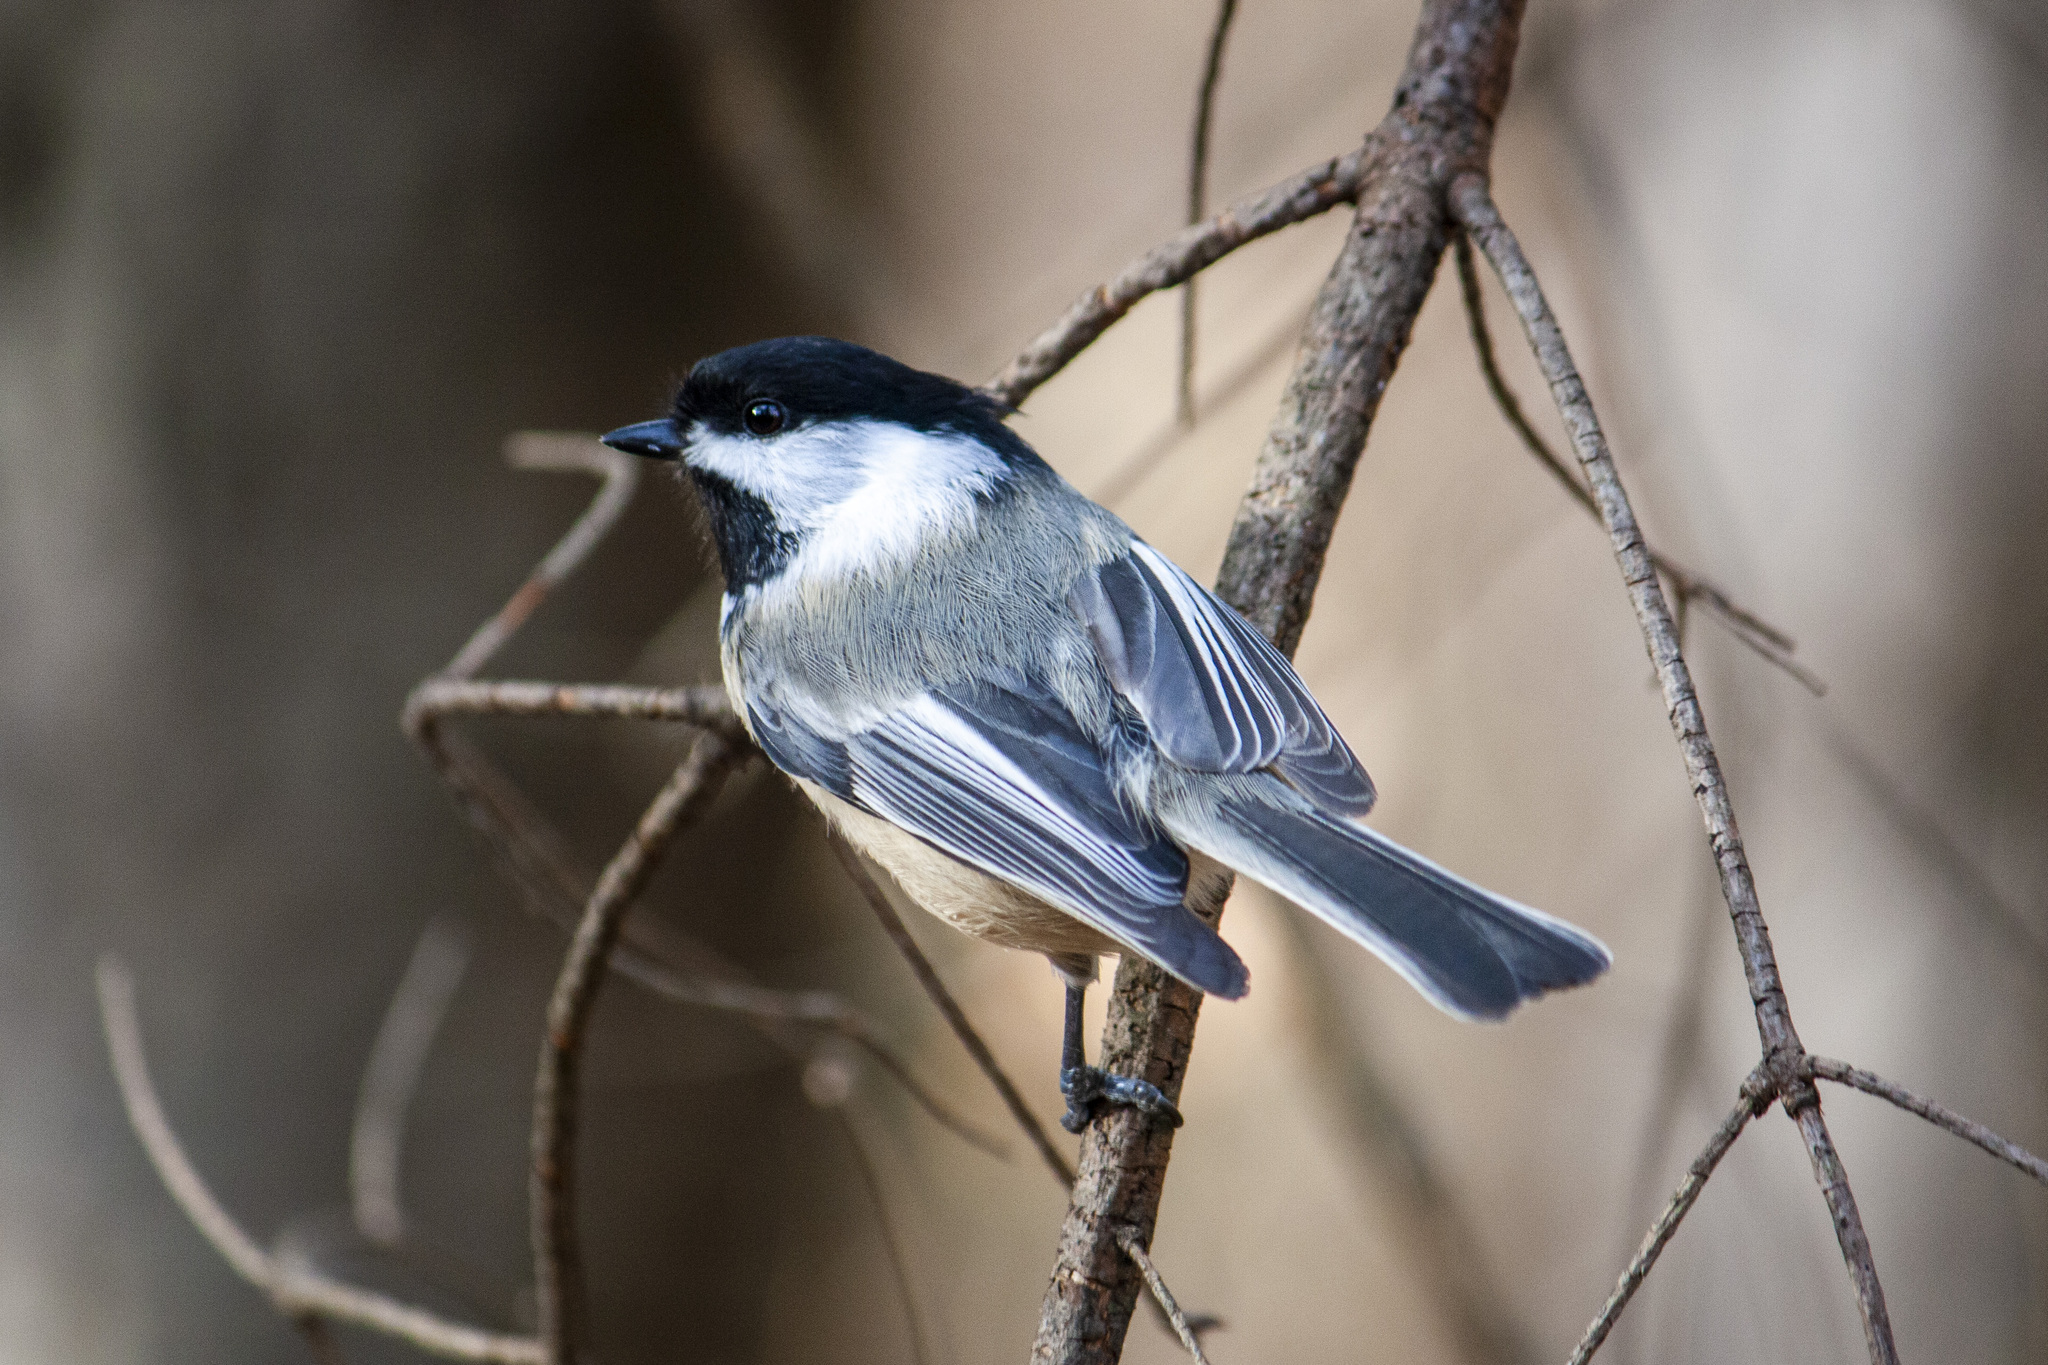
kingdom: Animalia
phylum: Chordata
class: Aves
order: Passeriformes
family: Paridae
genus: Poecile
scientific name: Poecile atricapillus
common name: Black-capped chickadee
